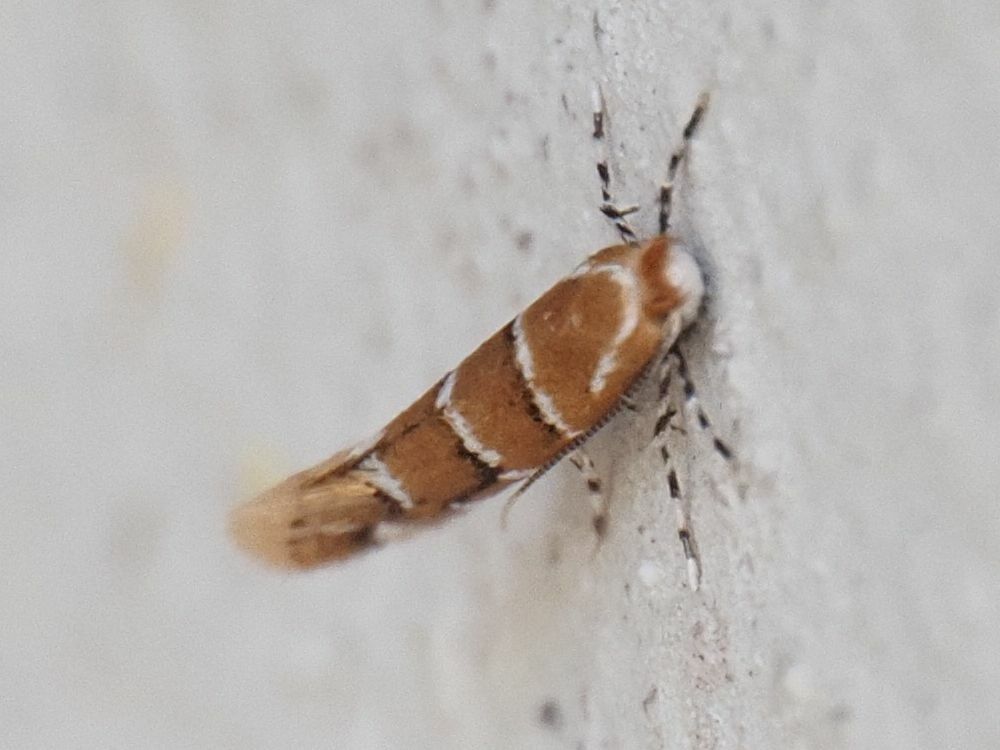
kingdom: Animalia
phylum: Arthropoda
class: Insecta
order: Lepidoptera
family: Gracillariidae
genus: Cameraria
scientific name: Cameraria ohridella
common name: Horse-chestnut leaf-miner
